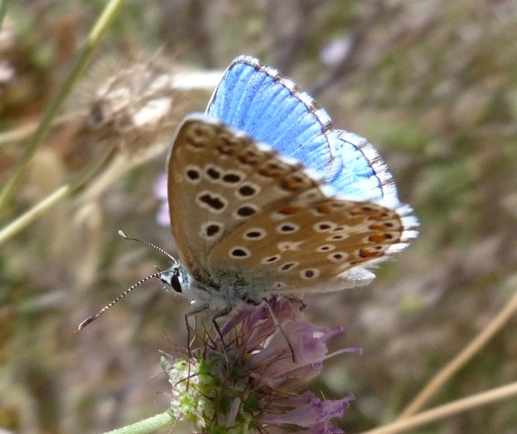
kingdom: Animalia
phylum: Arthropoda
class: Insecta
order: Lepidoptera
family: Lycaenidae
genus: Lysandra
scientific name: Lysandra bellargus
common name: Adonis blue
